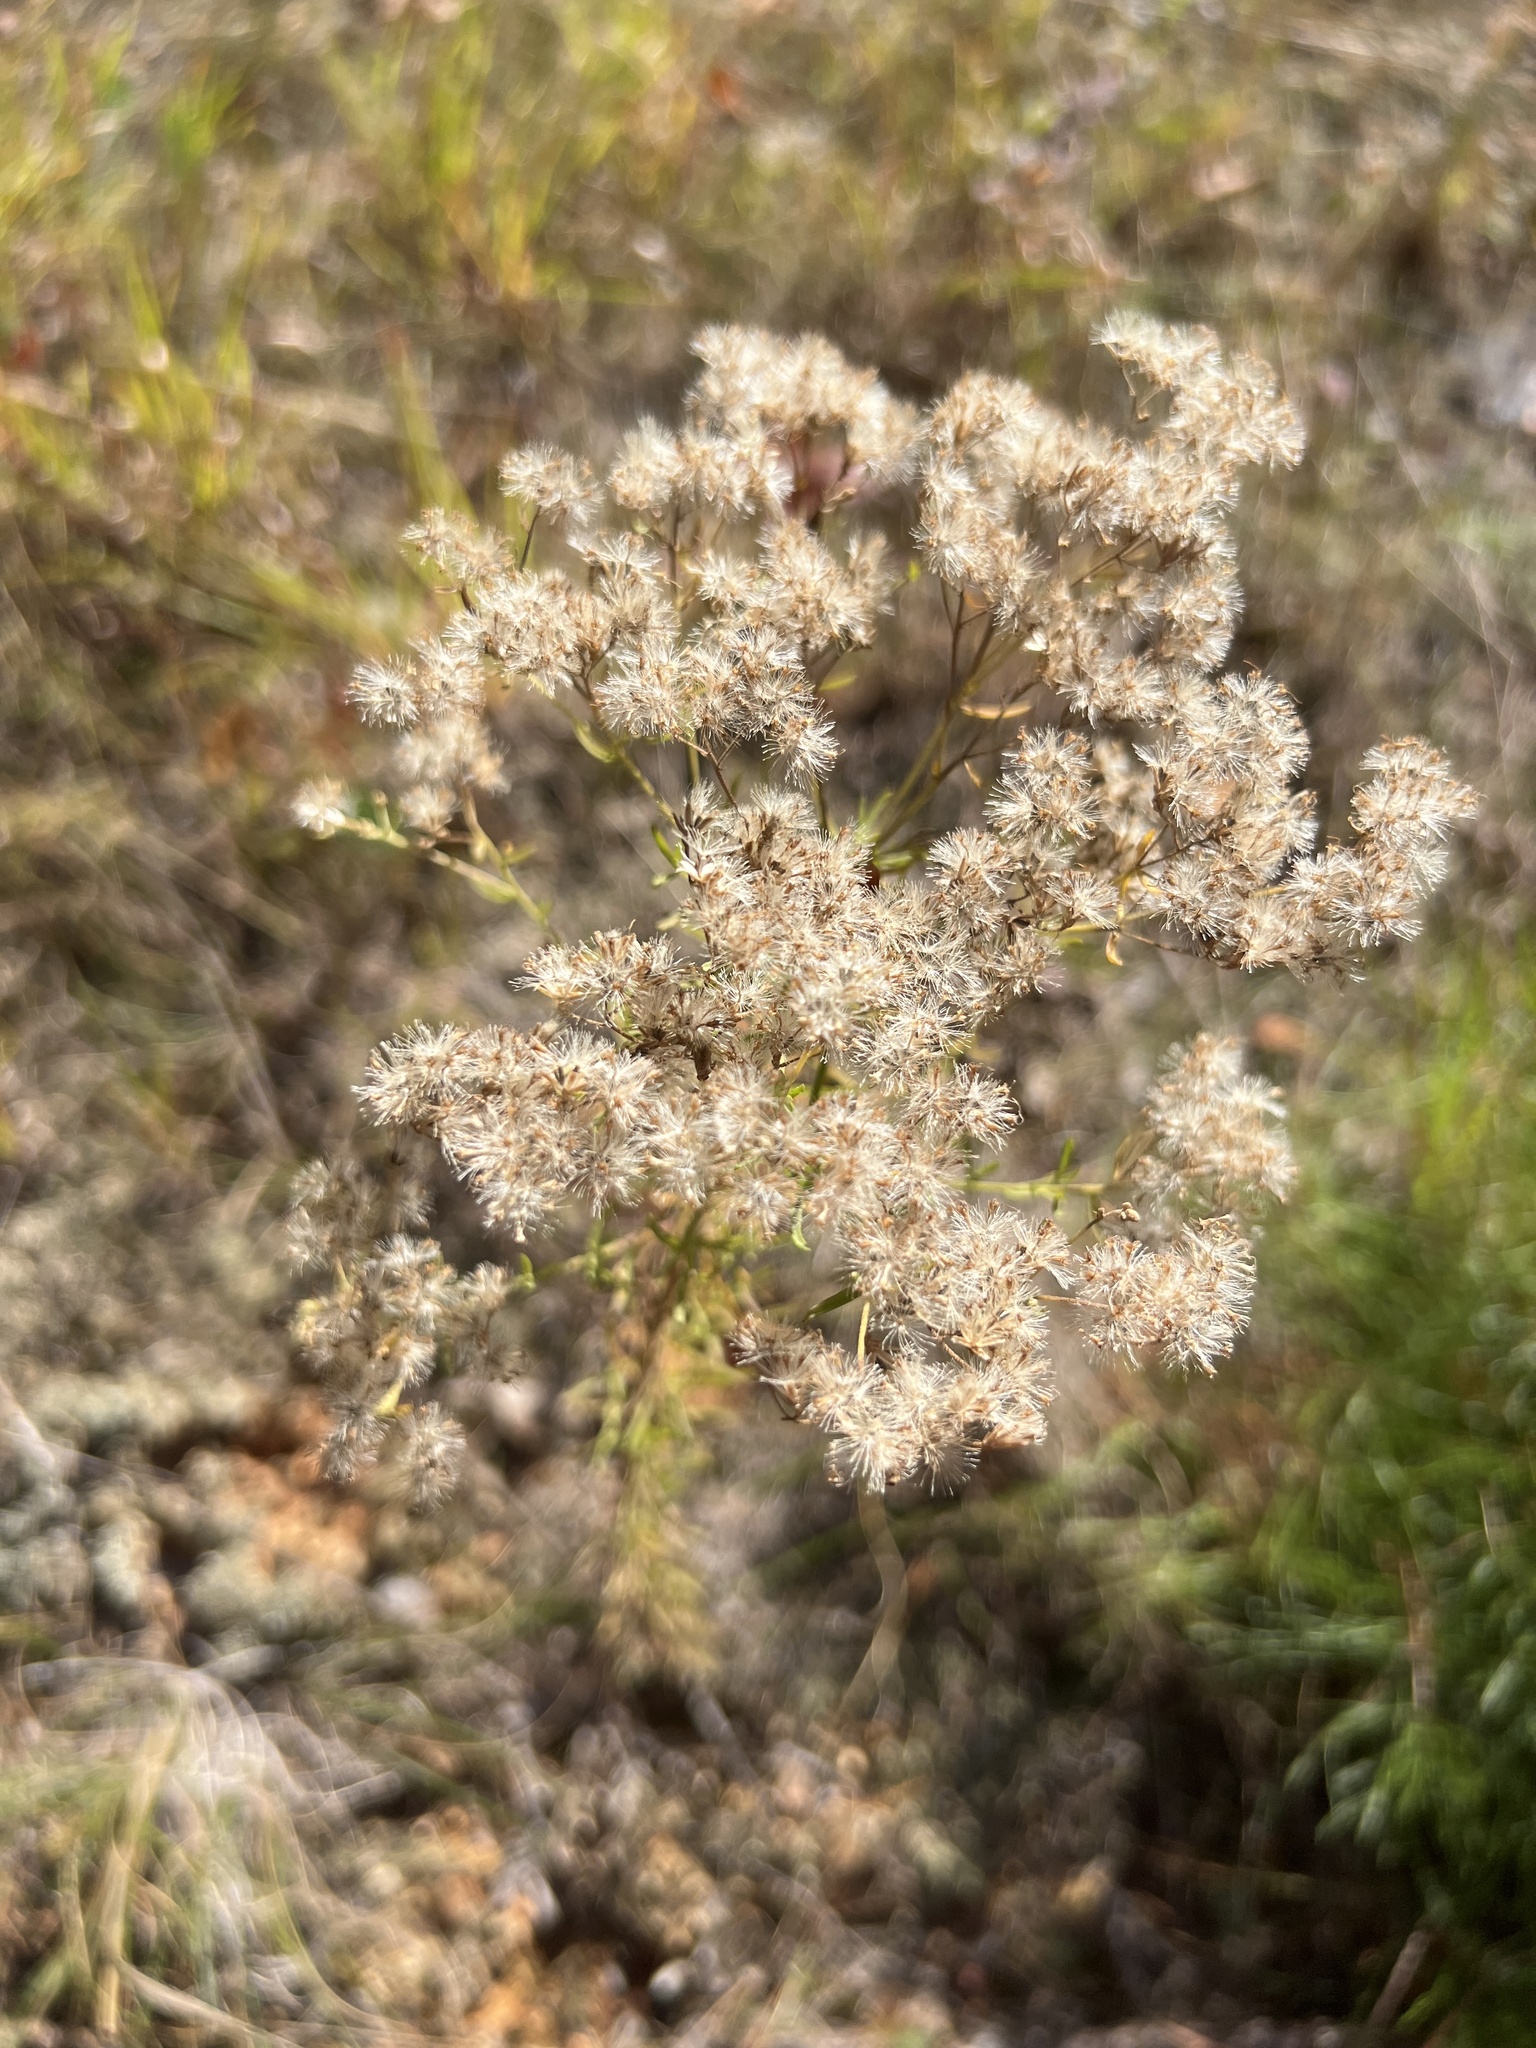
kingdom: Plantae
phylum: Tracheophyta
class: Magnoliopsida
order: Asterales
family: Asteraceae
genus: Eupatorium
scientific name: Eupatorium hyssopifolium
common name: Hyssop-leaf thoroughwort
